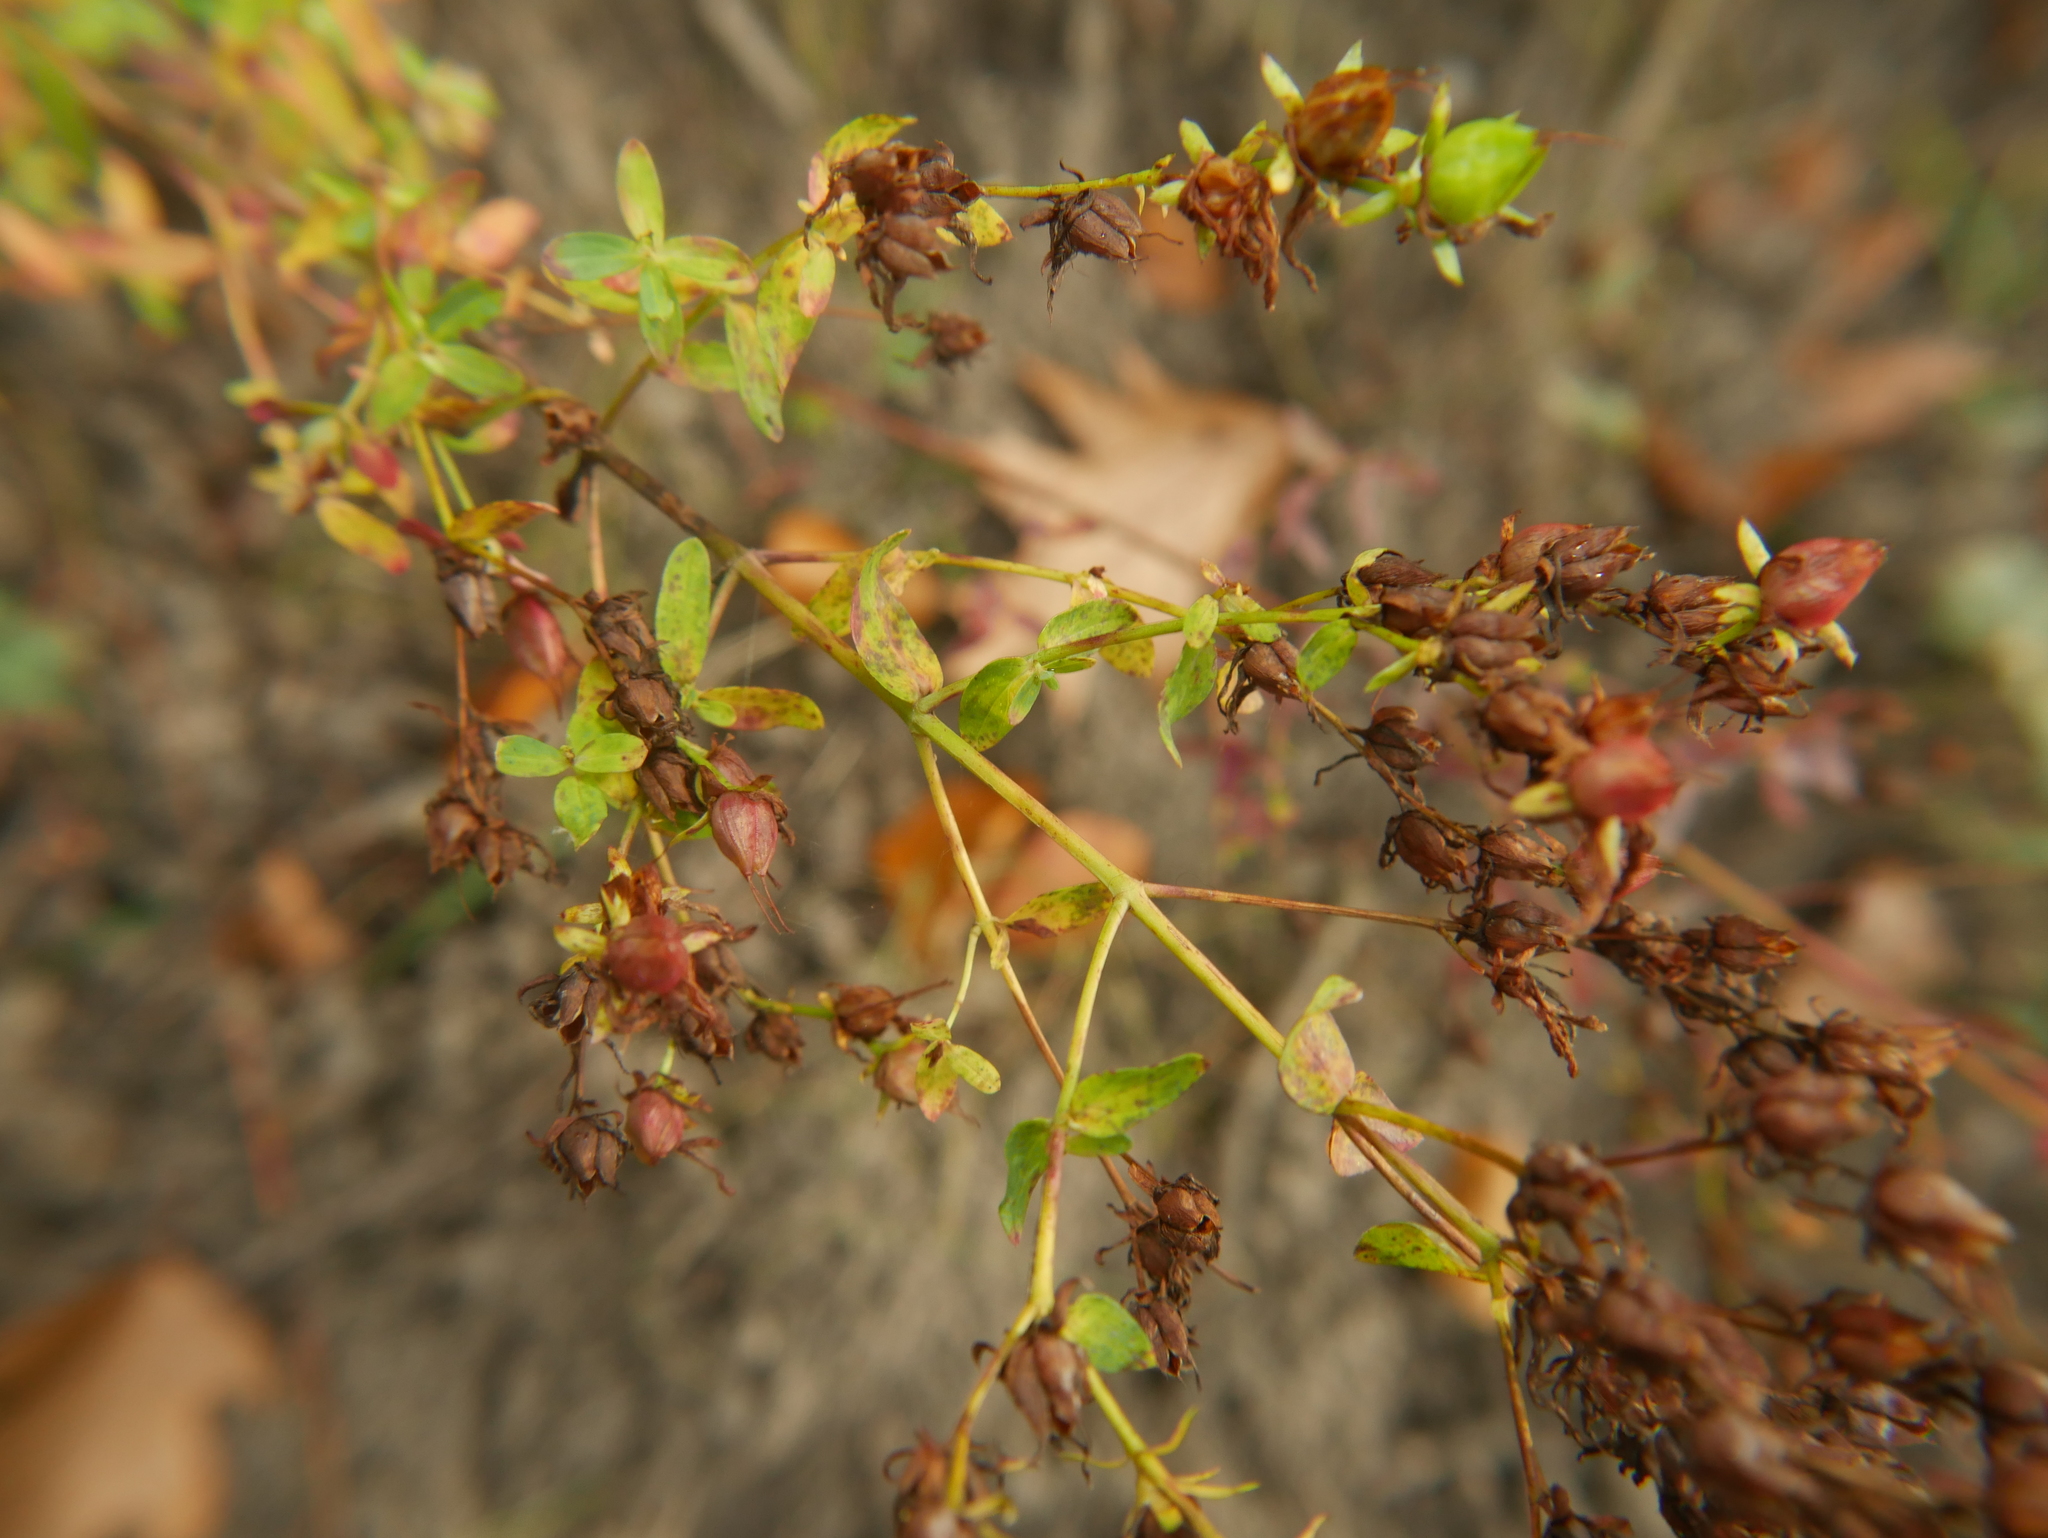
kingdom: Plantae
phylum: Tracheophyta
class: Magnoliopsida
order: Malpighiales
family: Hypericaceae
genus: Hypericum
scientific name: Hypericum perforatum
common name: Common st. johnswort
